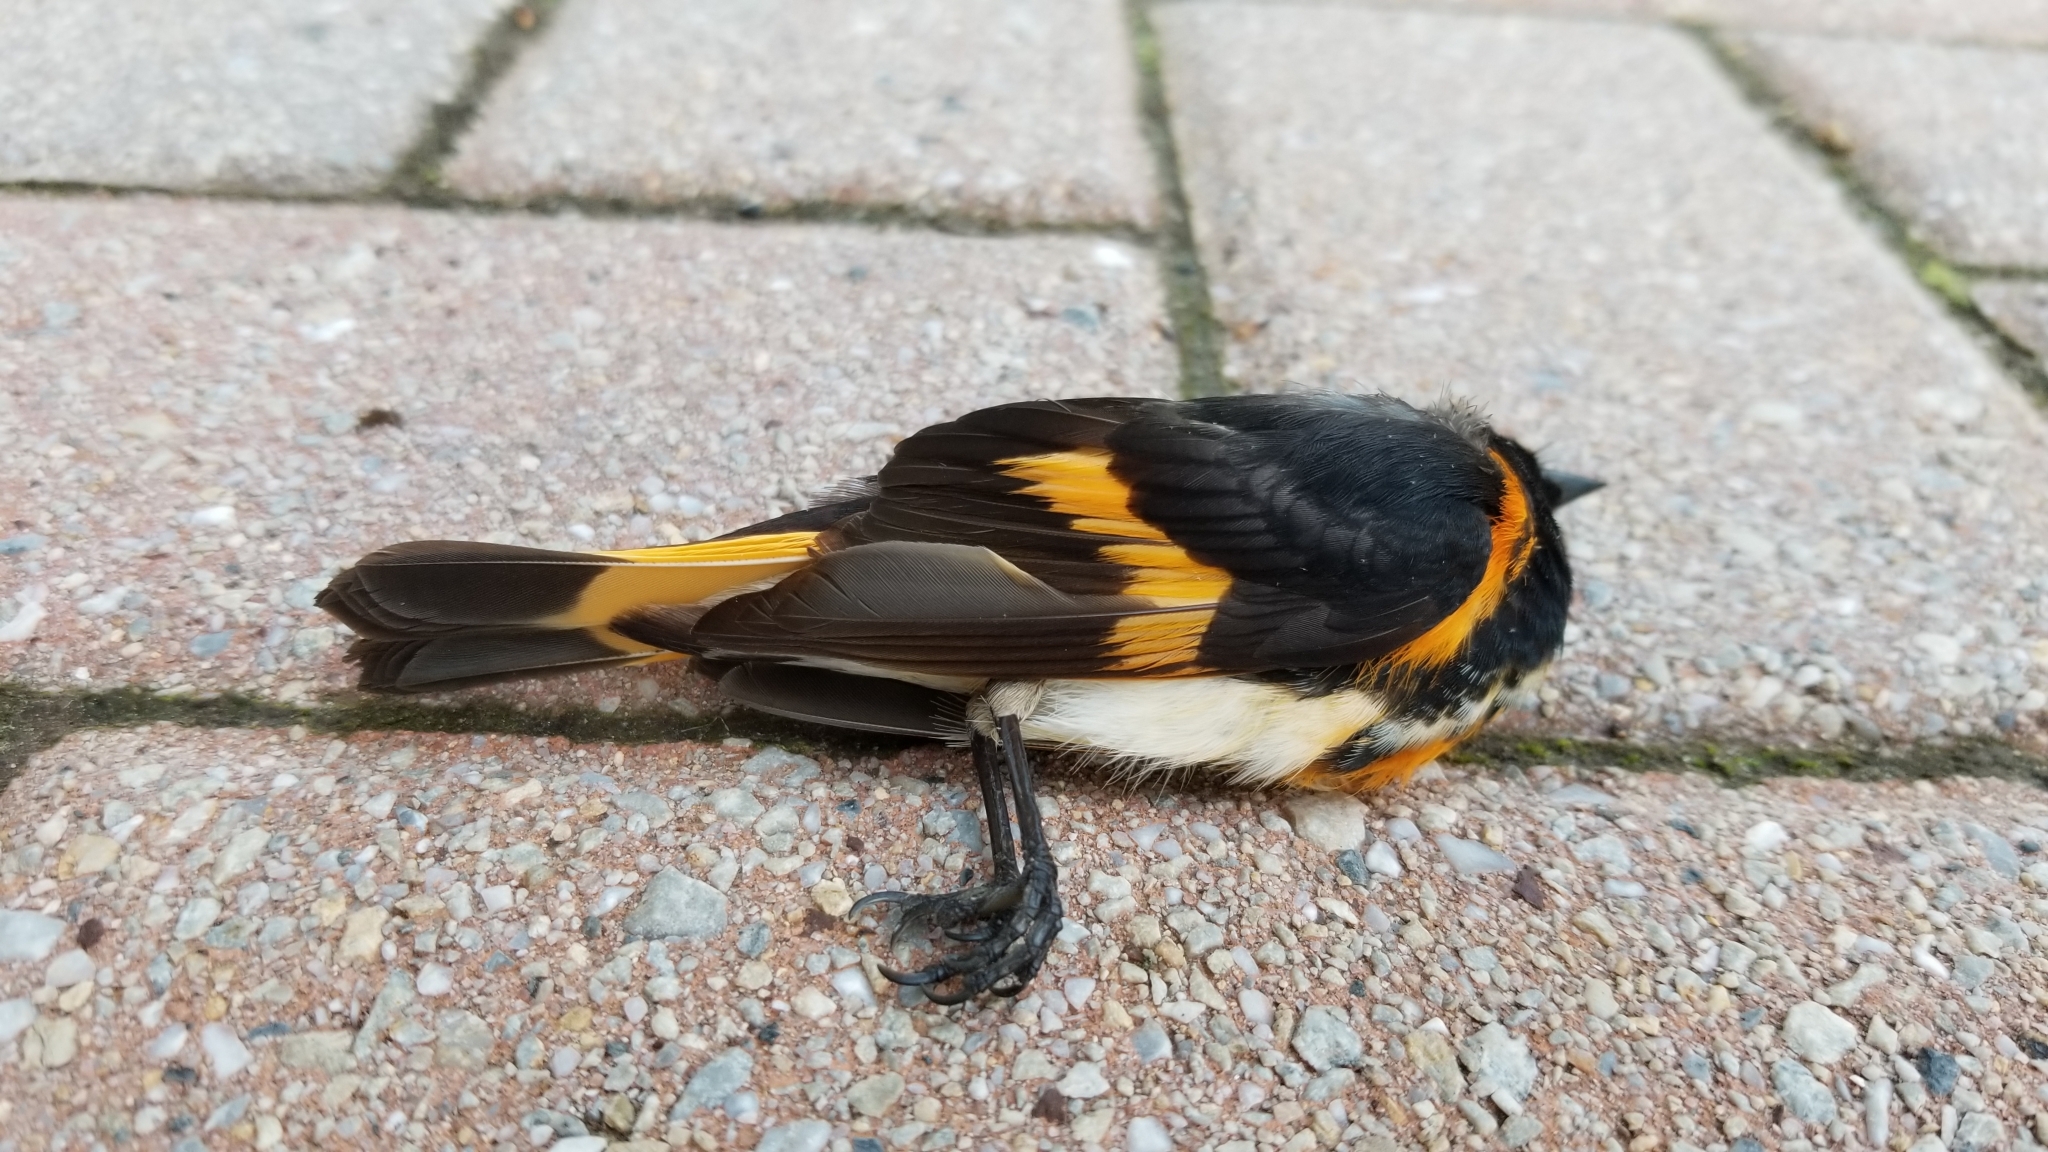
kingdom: Animalia
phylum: Chordata
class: Aves
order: Passeriformes
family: Parulidae
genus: Setophaga
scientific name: Setophaga ruticilla
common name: American redstart
